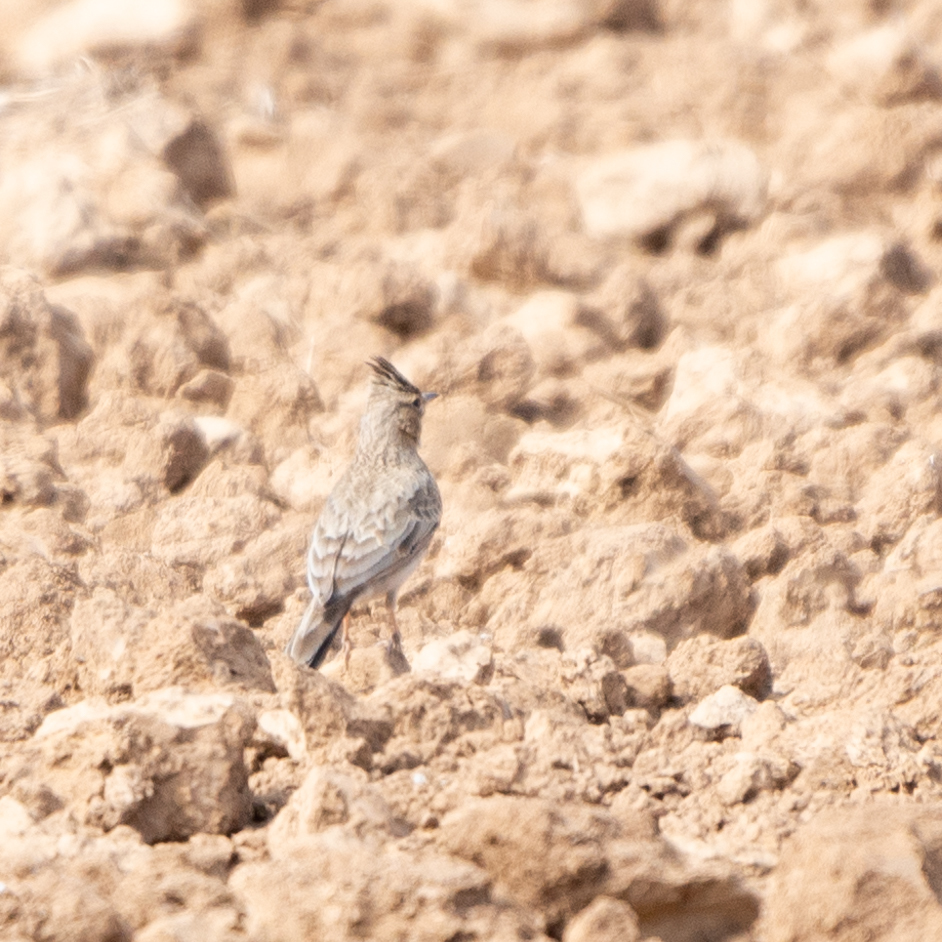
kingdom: Animalia
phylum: Chordata
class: Aves
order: Passeriformes
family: Alaudidae
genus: Galerida
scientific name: Galerida cristata
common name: Crested lark
